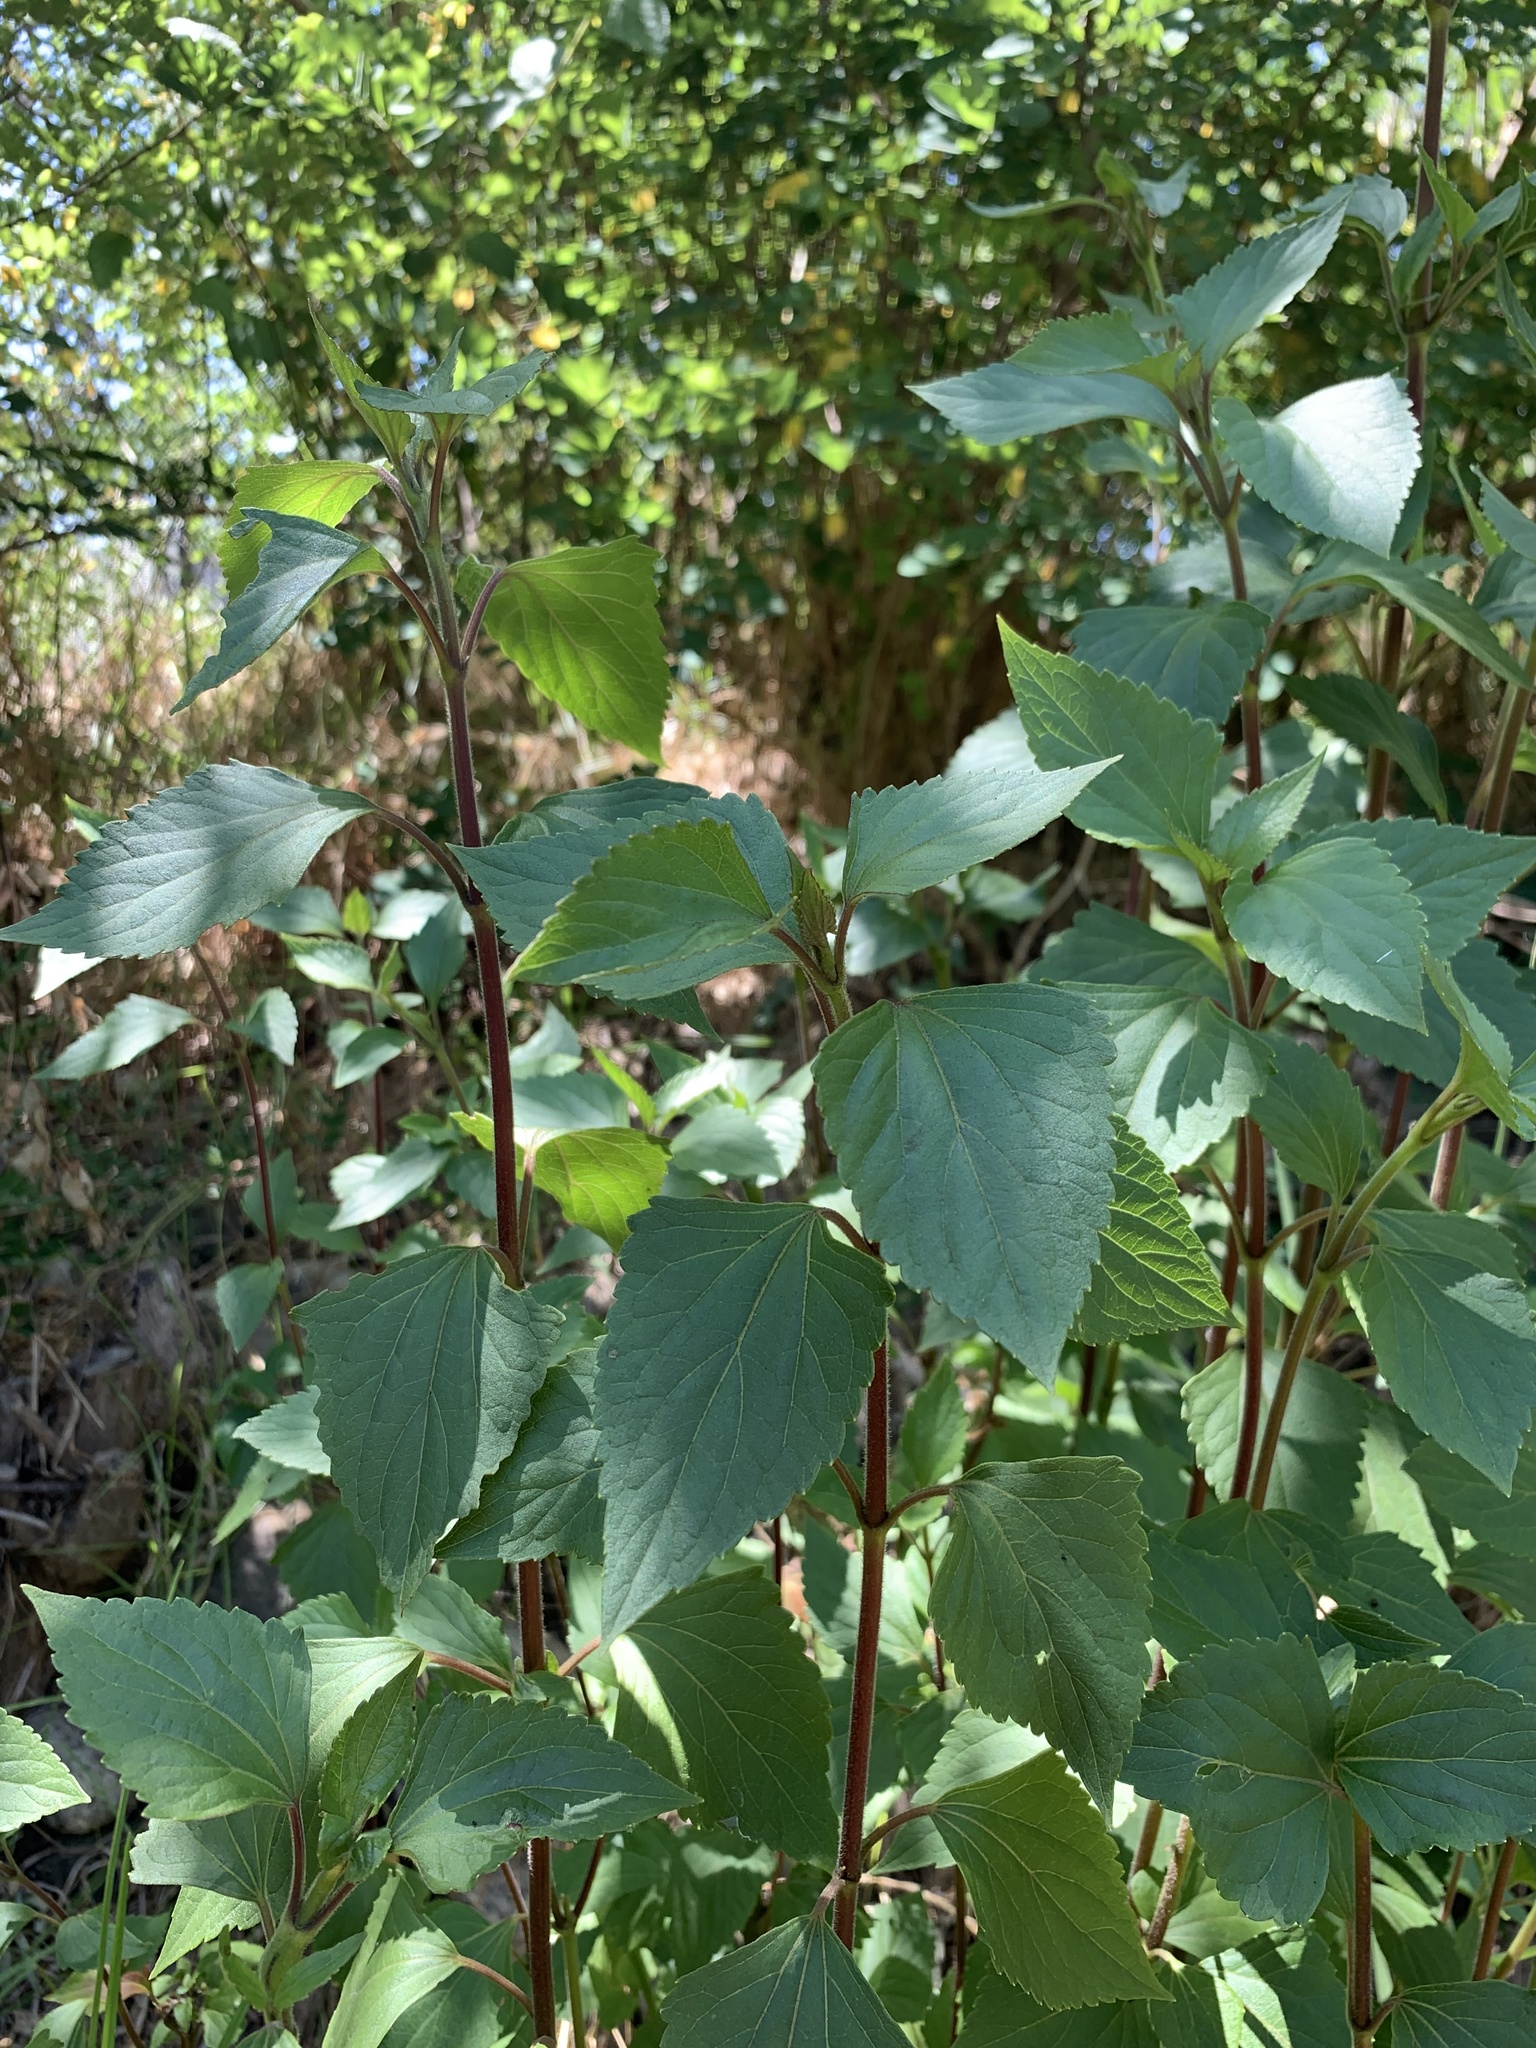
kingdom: Plantae
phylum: Tracheophyta
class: Magnoliopsida
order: Asterales
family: Asteraceae
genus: Ageratina
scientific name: Ageratina adenophora
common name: Sticky snakeroot
